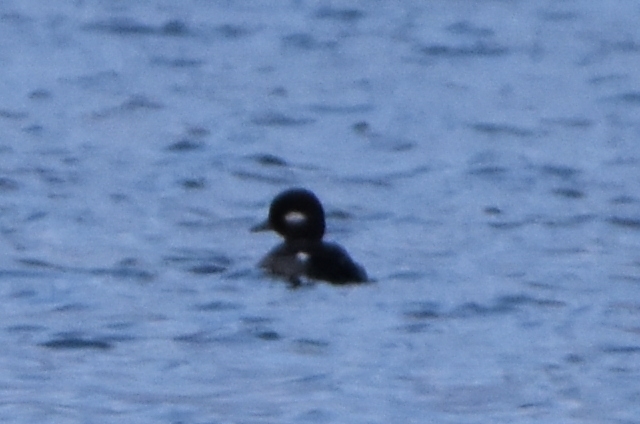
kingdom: Animalia
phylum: Chordata
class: Aves
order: Anseriformes
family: Anatidae
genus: Bucephala
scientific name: Bucephala albeola
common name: Bufflehead
